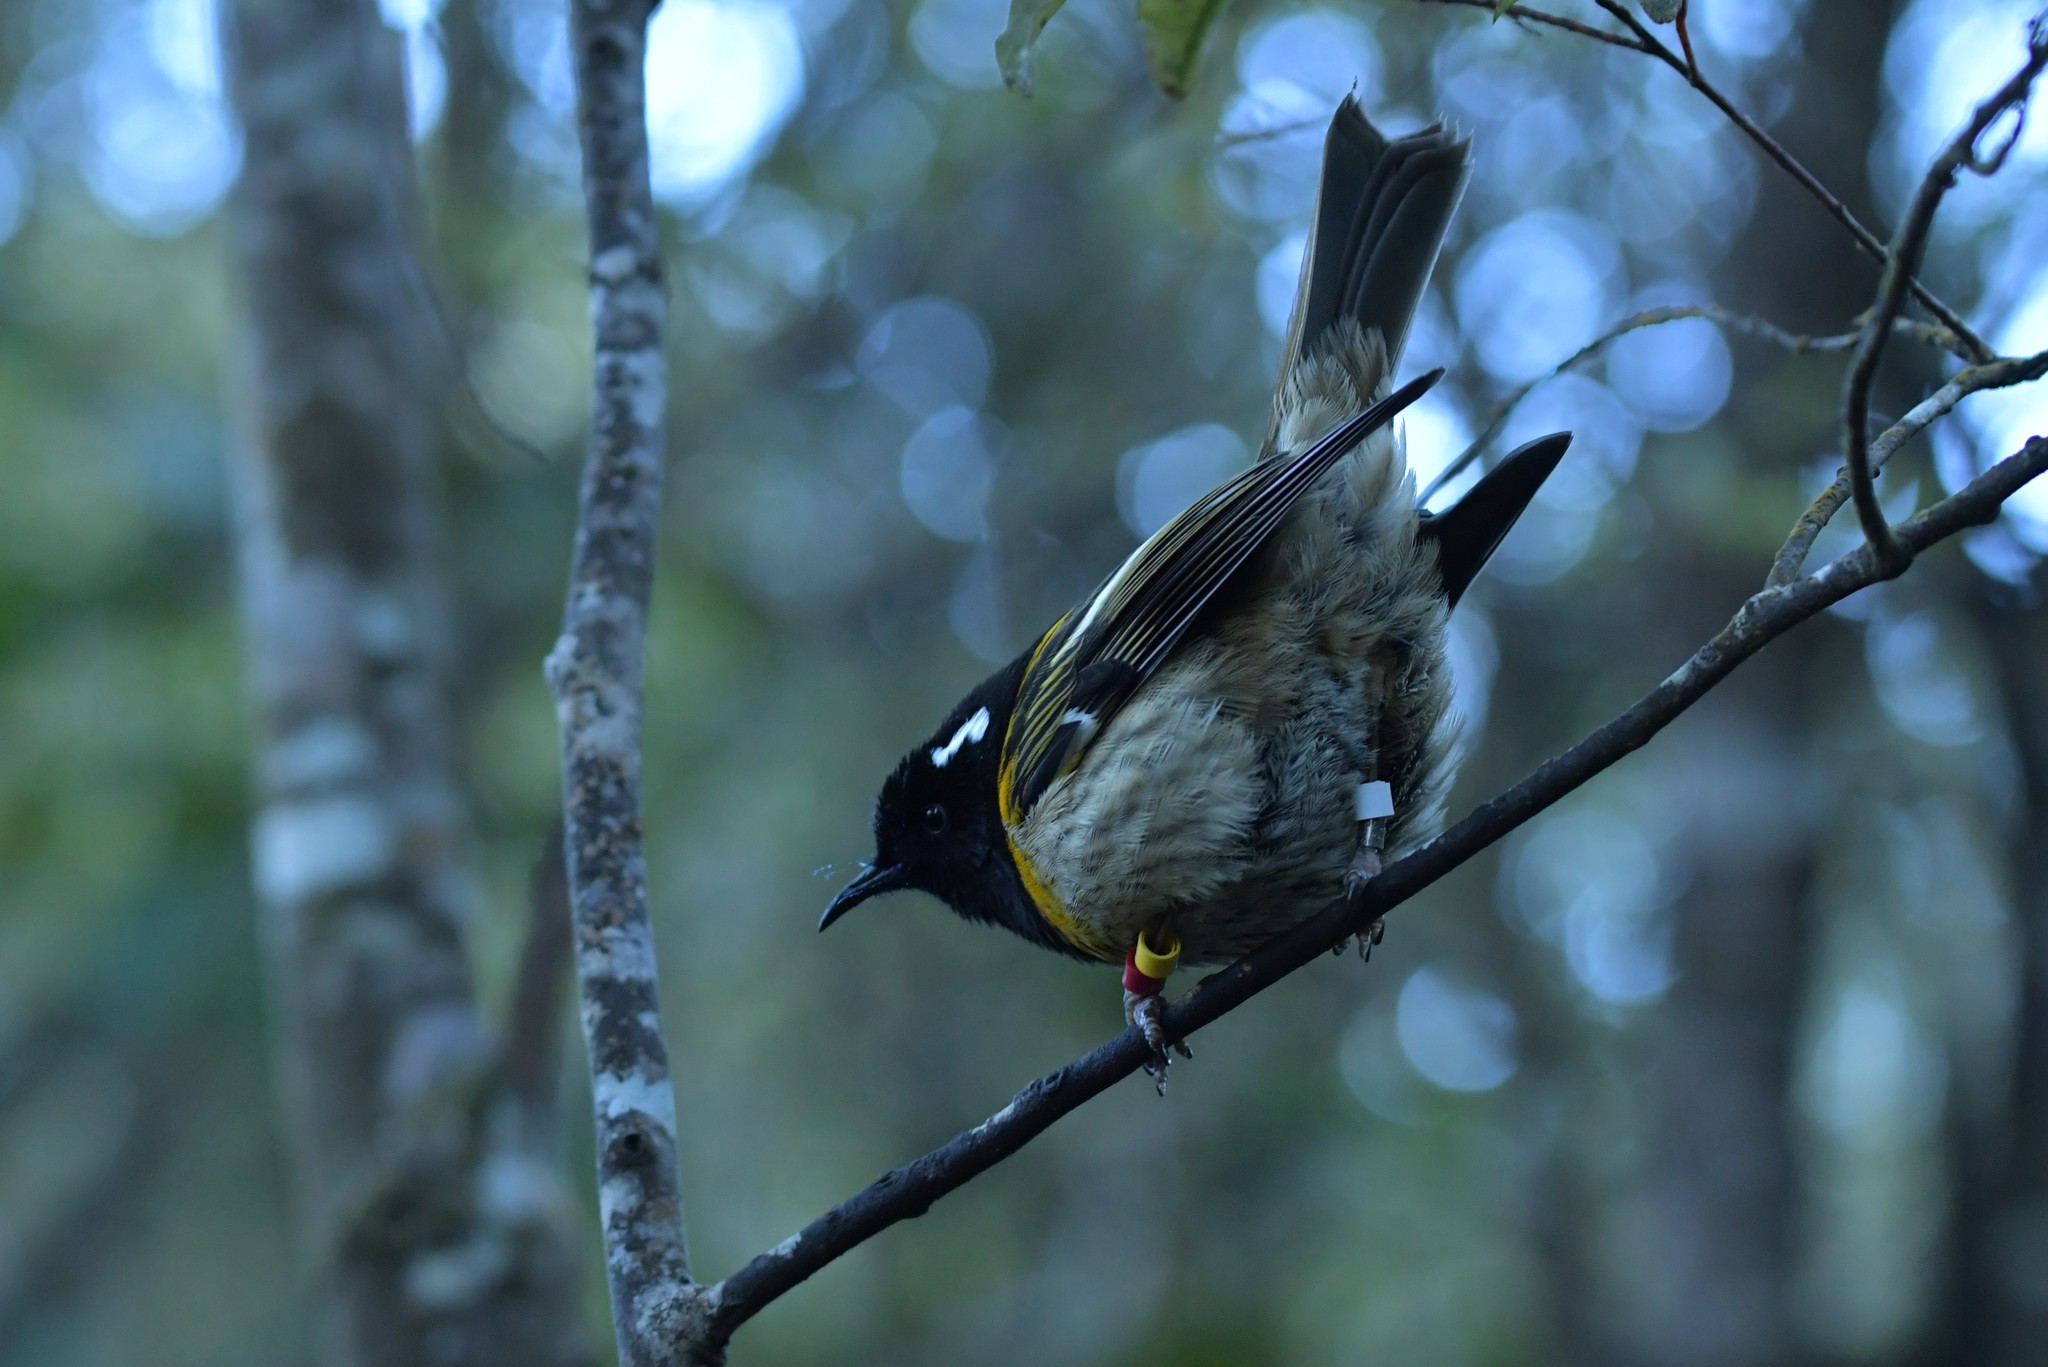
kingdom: Animalia
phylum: Chordata
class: Aves
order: Passeriformes
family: Notiomystidae
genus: Notiomystis
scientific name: Notiomystis cincta
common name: Stitchbird
